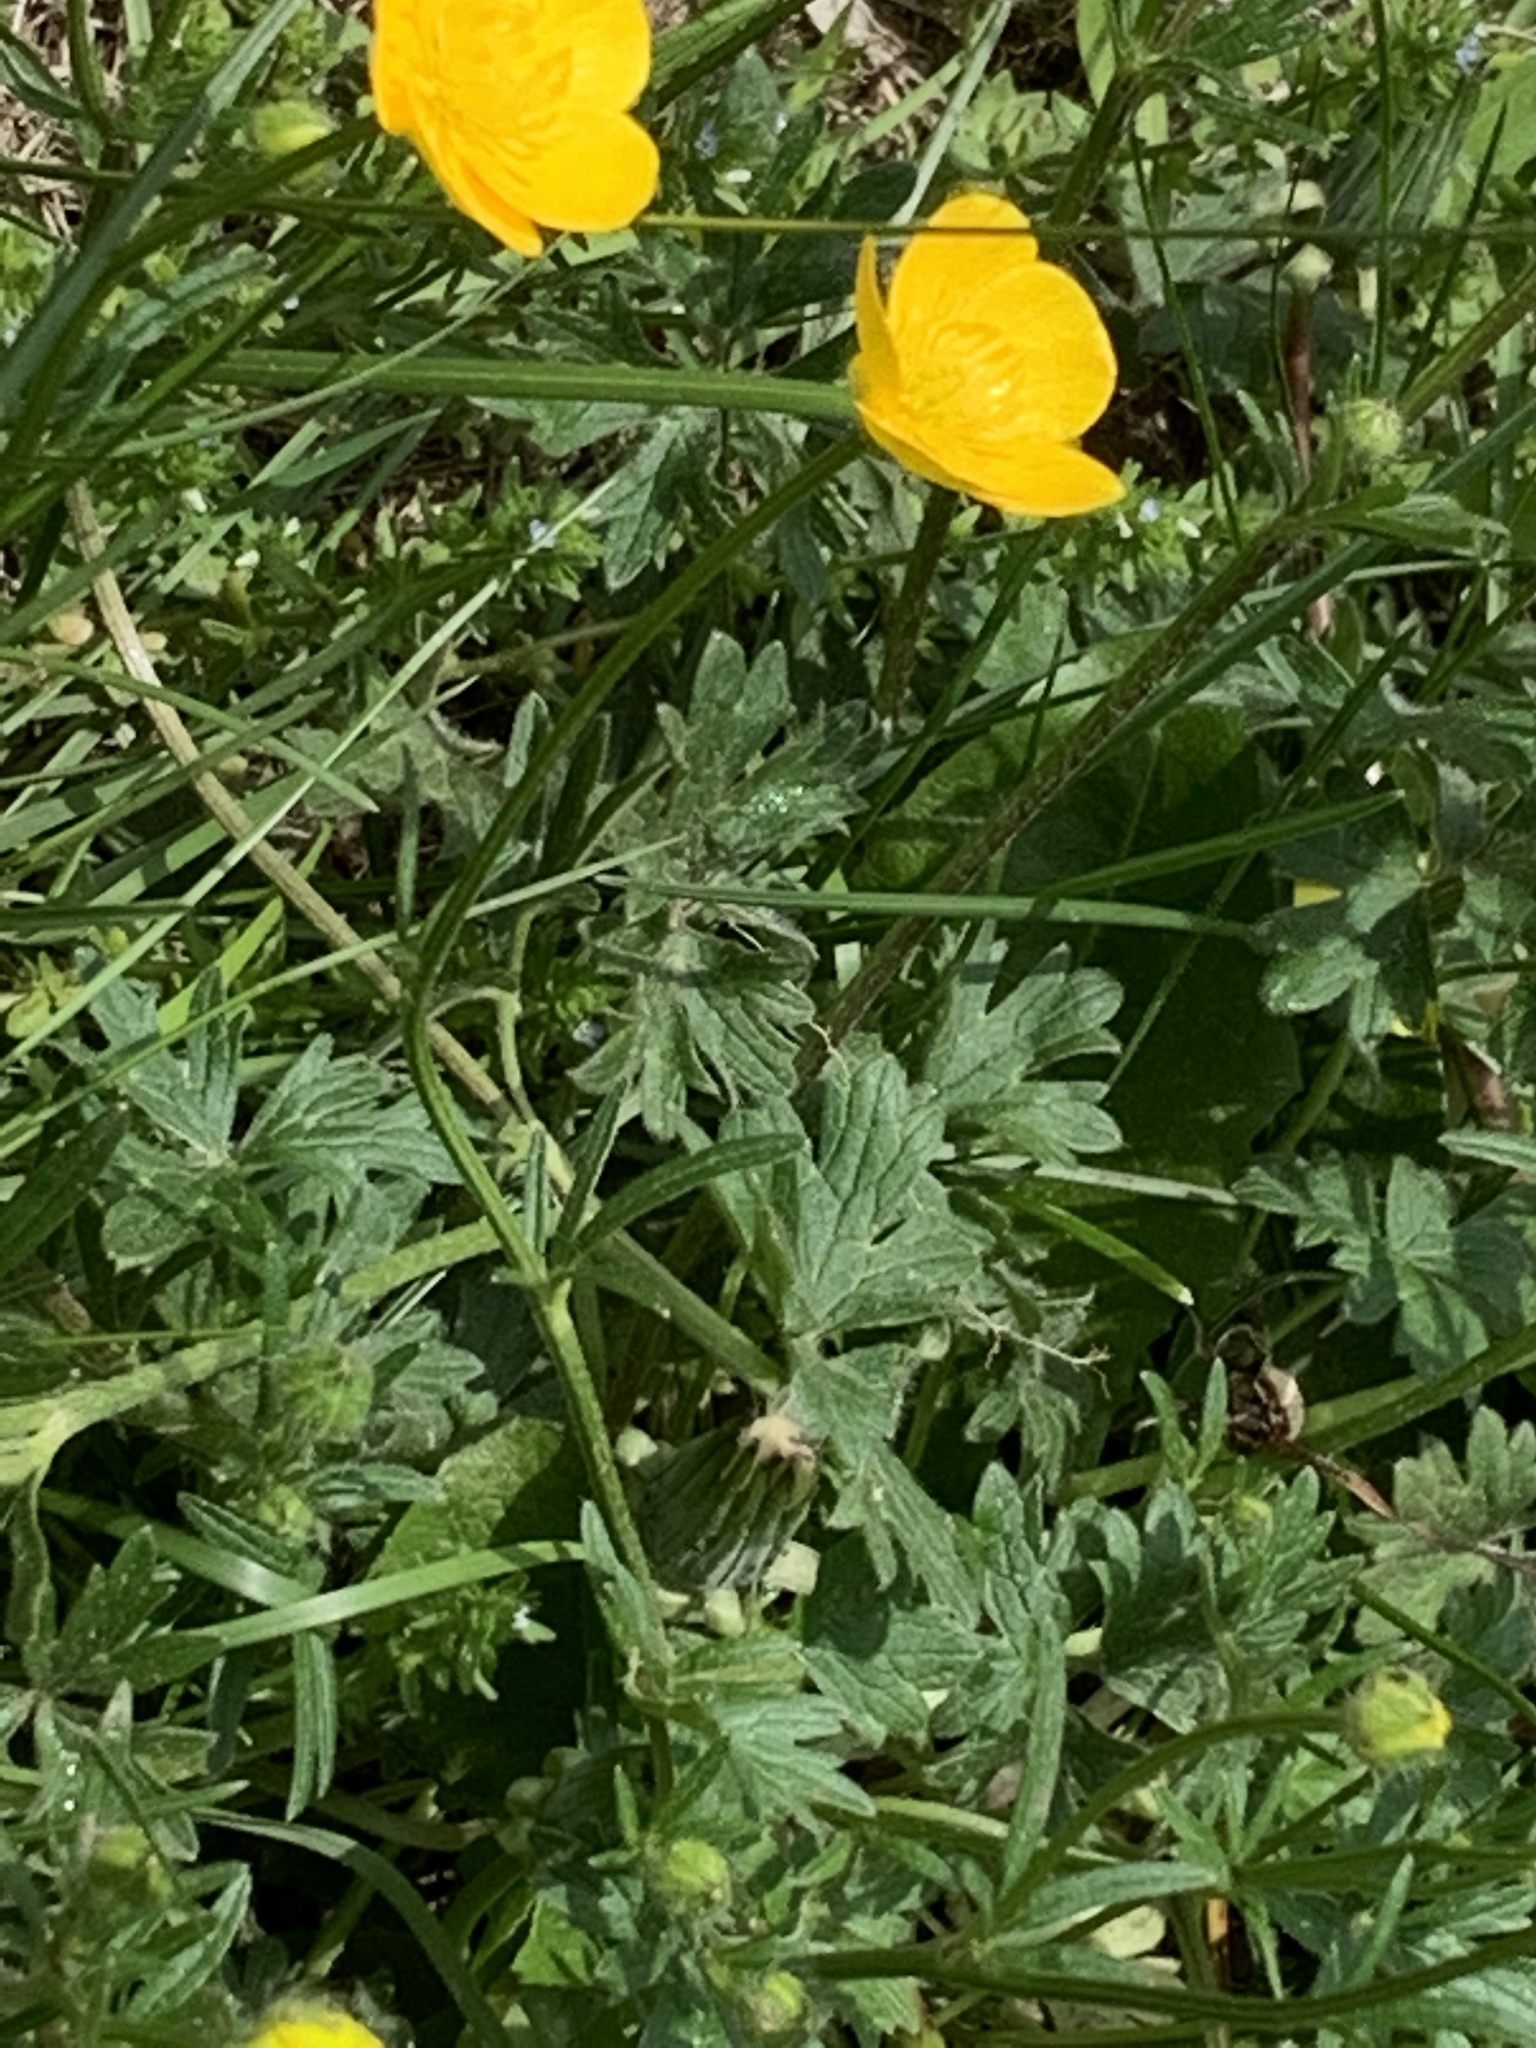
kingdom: Plantae
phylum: Tracheophyta
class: Magnoliopsida
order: Ranunculales
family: Ranunculaceae
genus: Ranunculus
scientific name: Ranunculus bulbosus
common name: Bulbous buttercup
